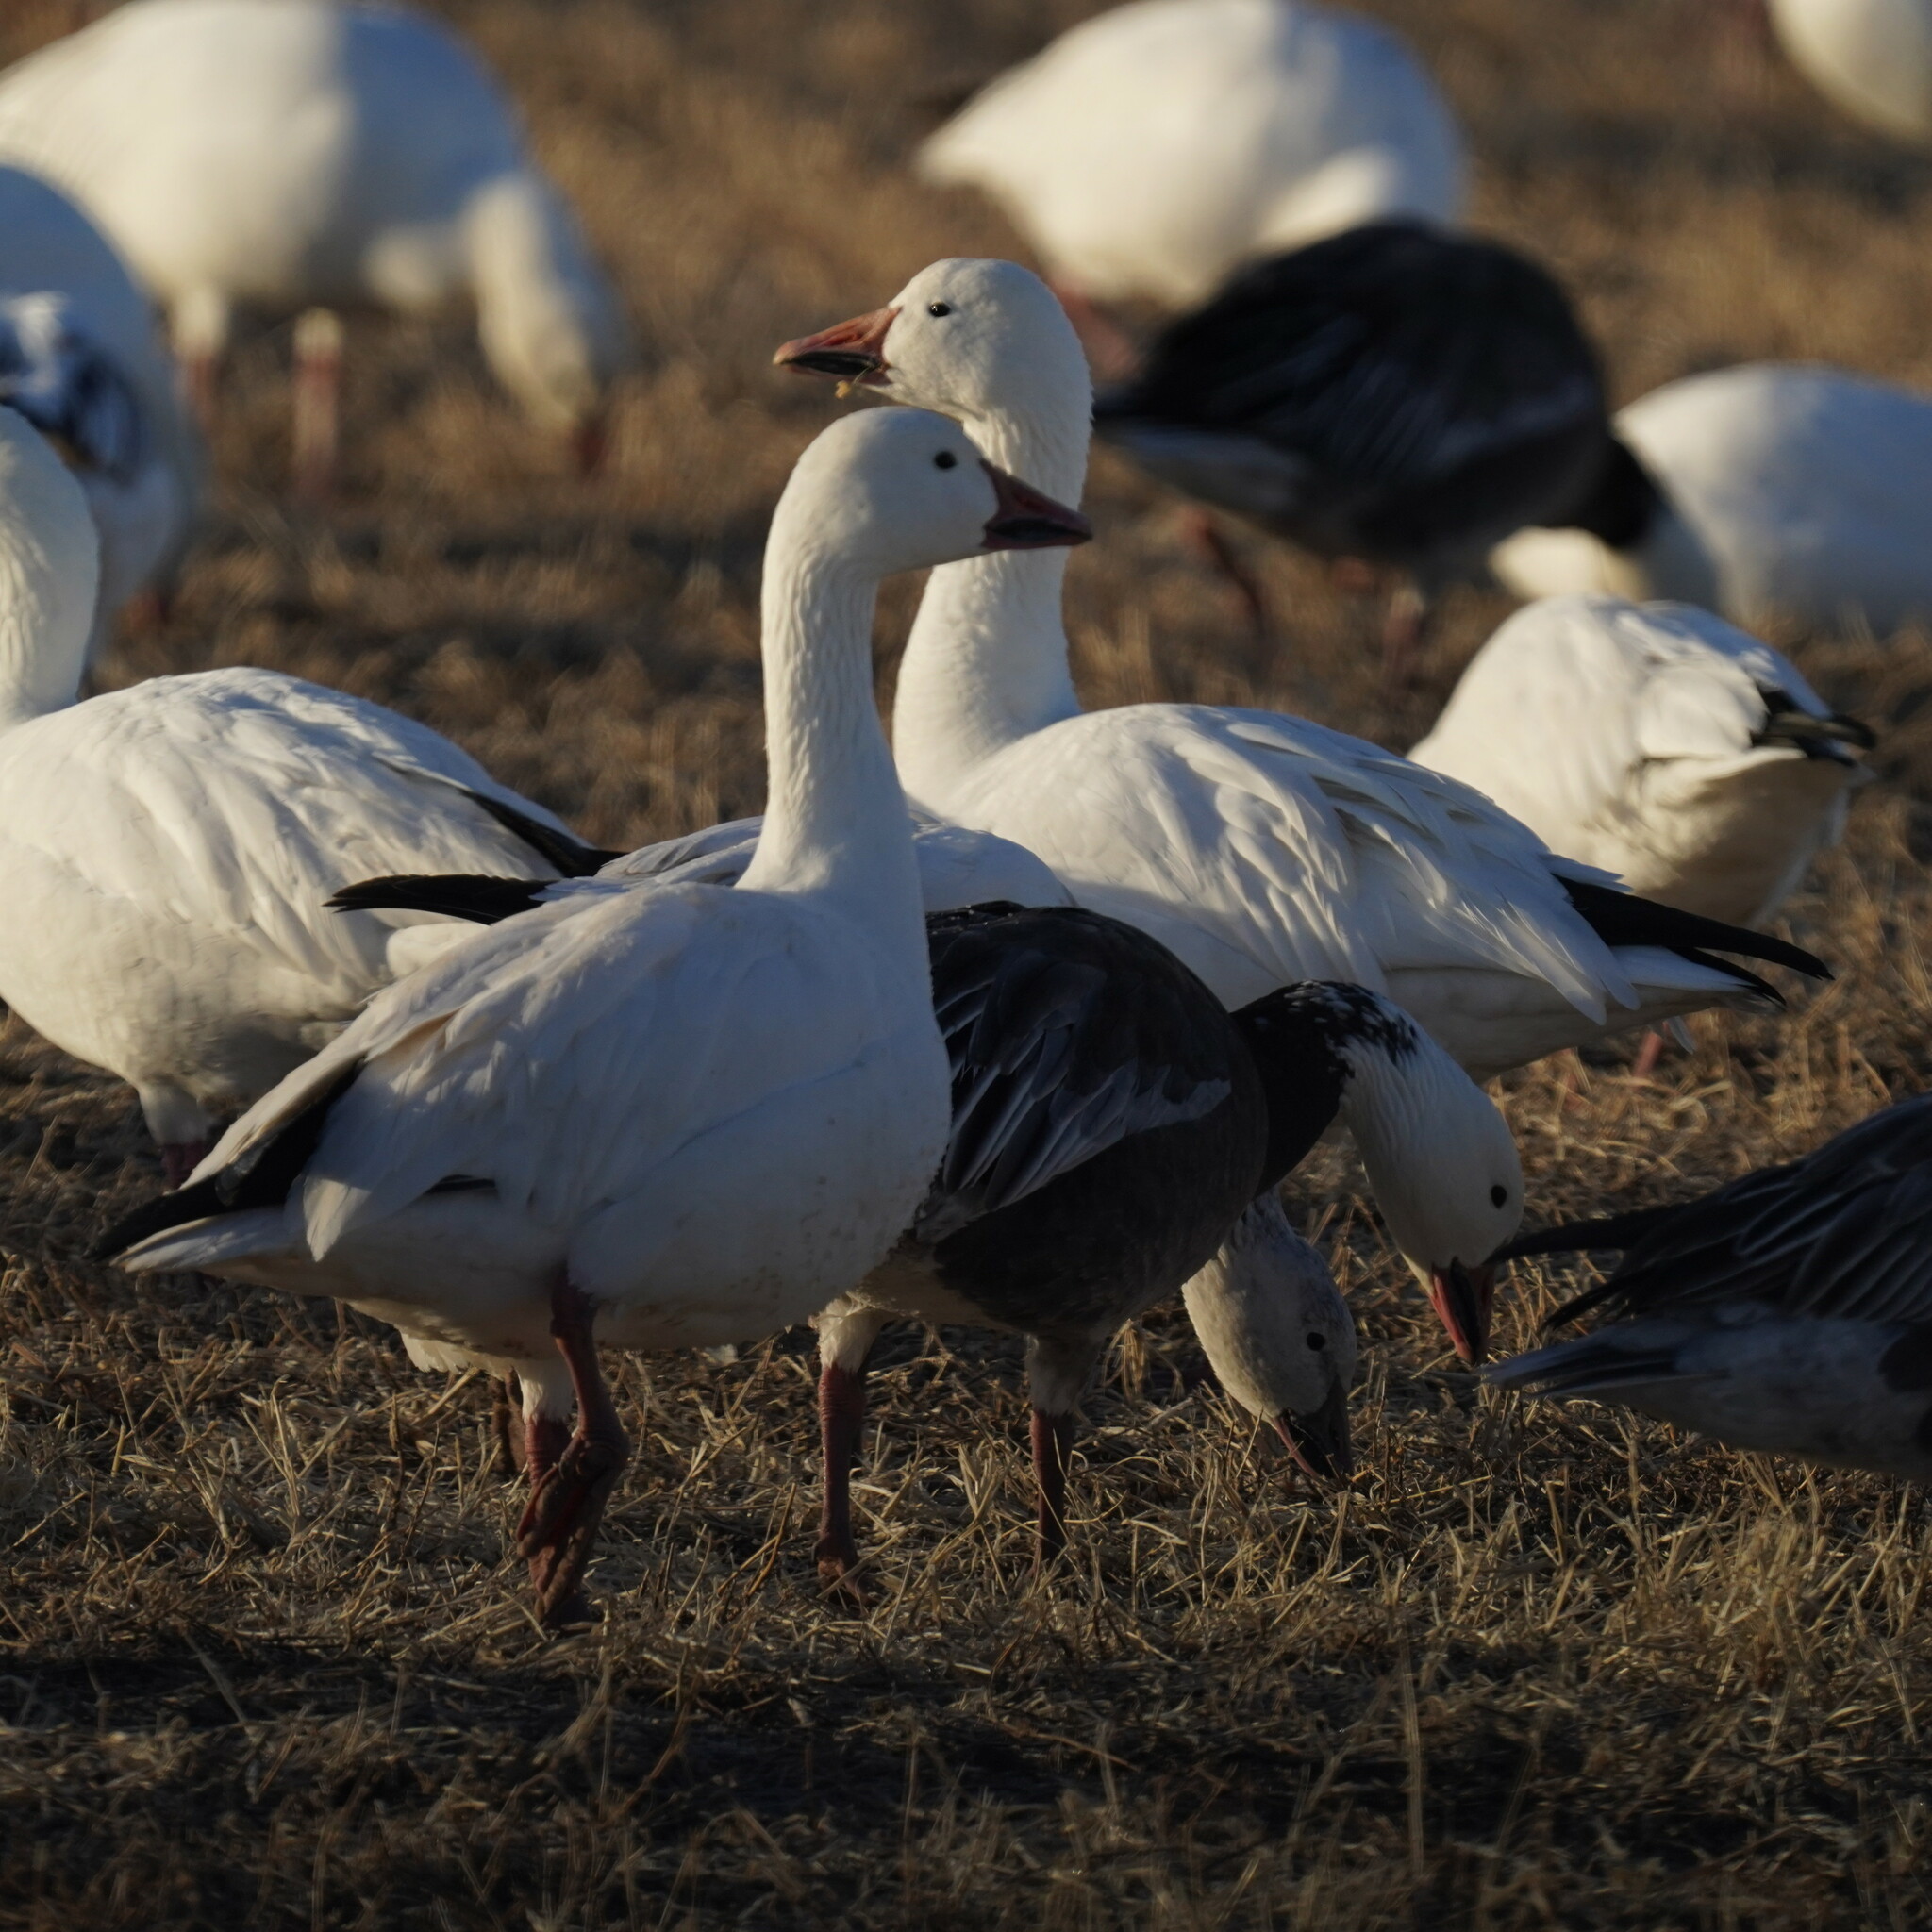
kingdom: Animalia
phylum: Chordata
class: Aves
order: Anseriformes
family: Anatidae
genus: Anser
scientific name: Anser caerulescens
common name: Snow goose
